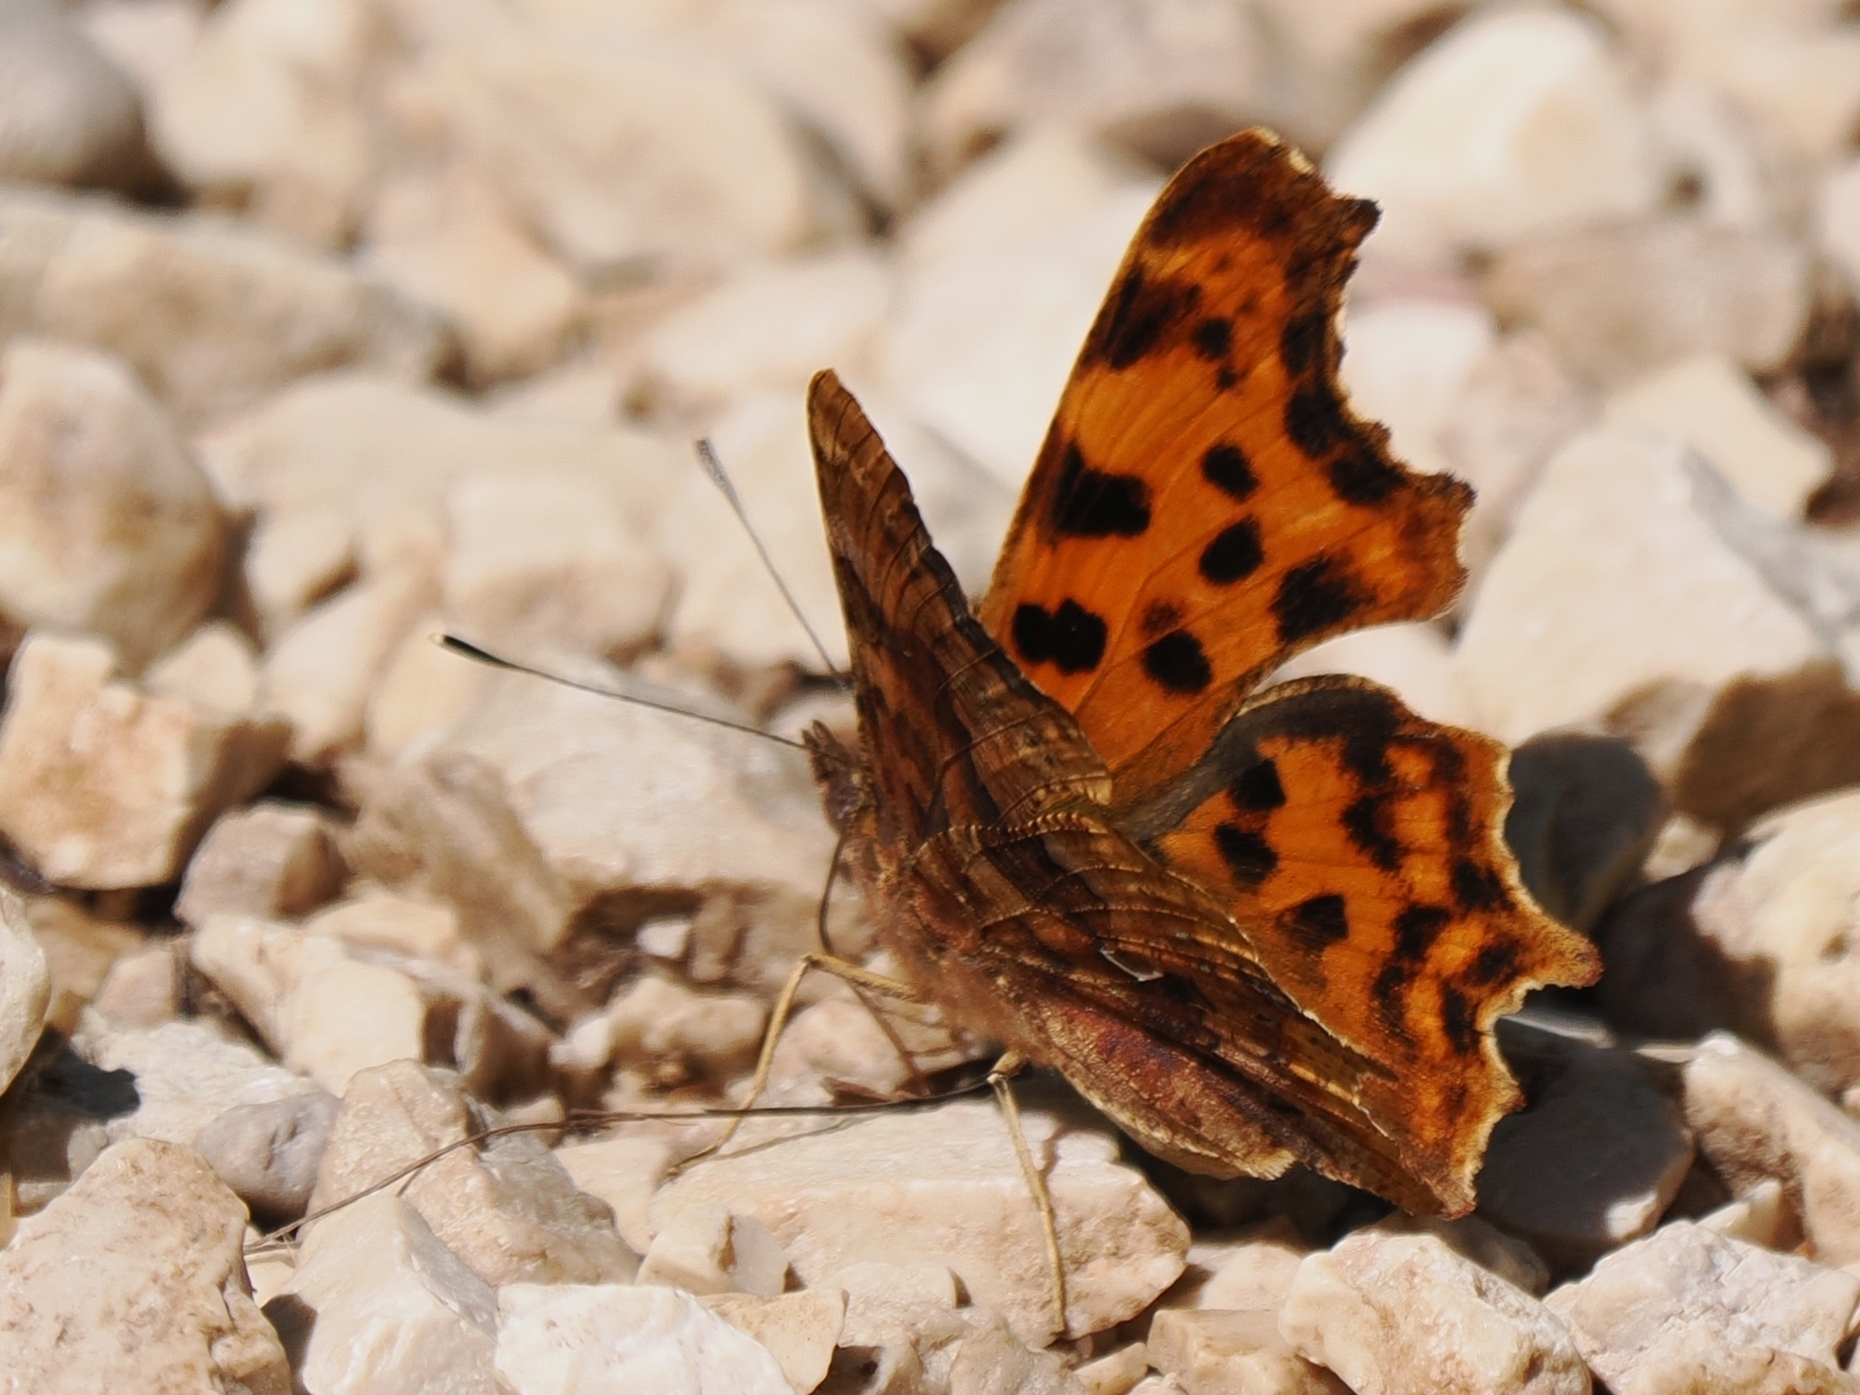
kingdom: Animalia
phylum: Arthropoda
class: Insecta
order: Lepidoptera
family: Nymphalidae
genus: Polygonia
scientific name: Polygonia c-album
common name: Comma
